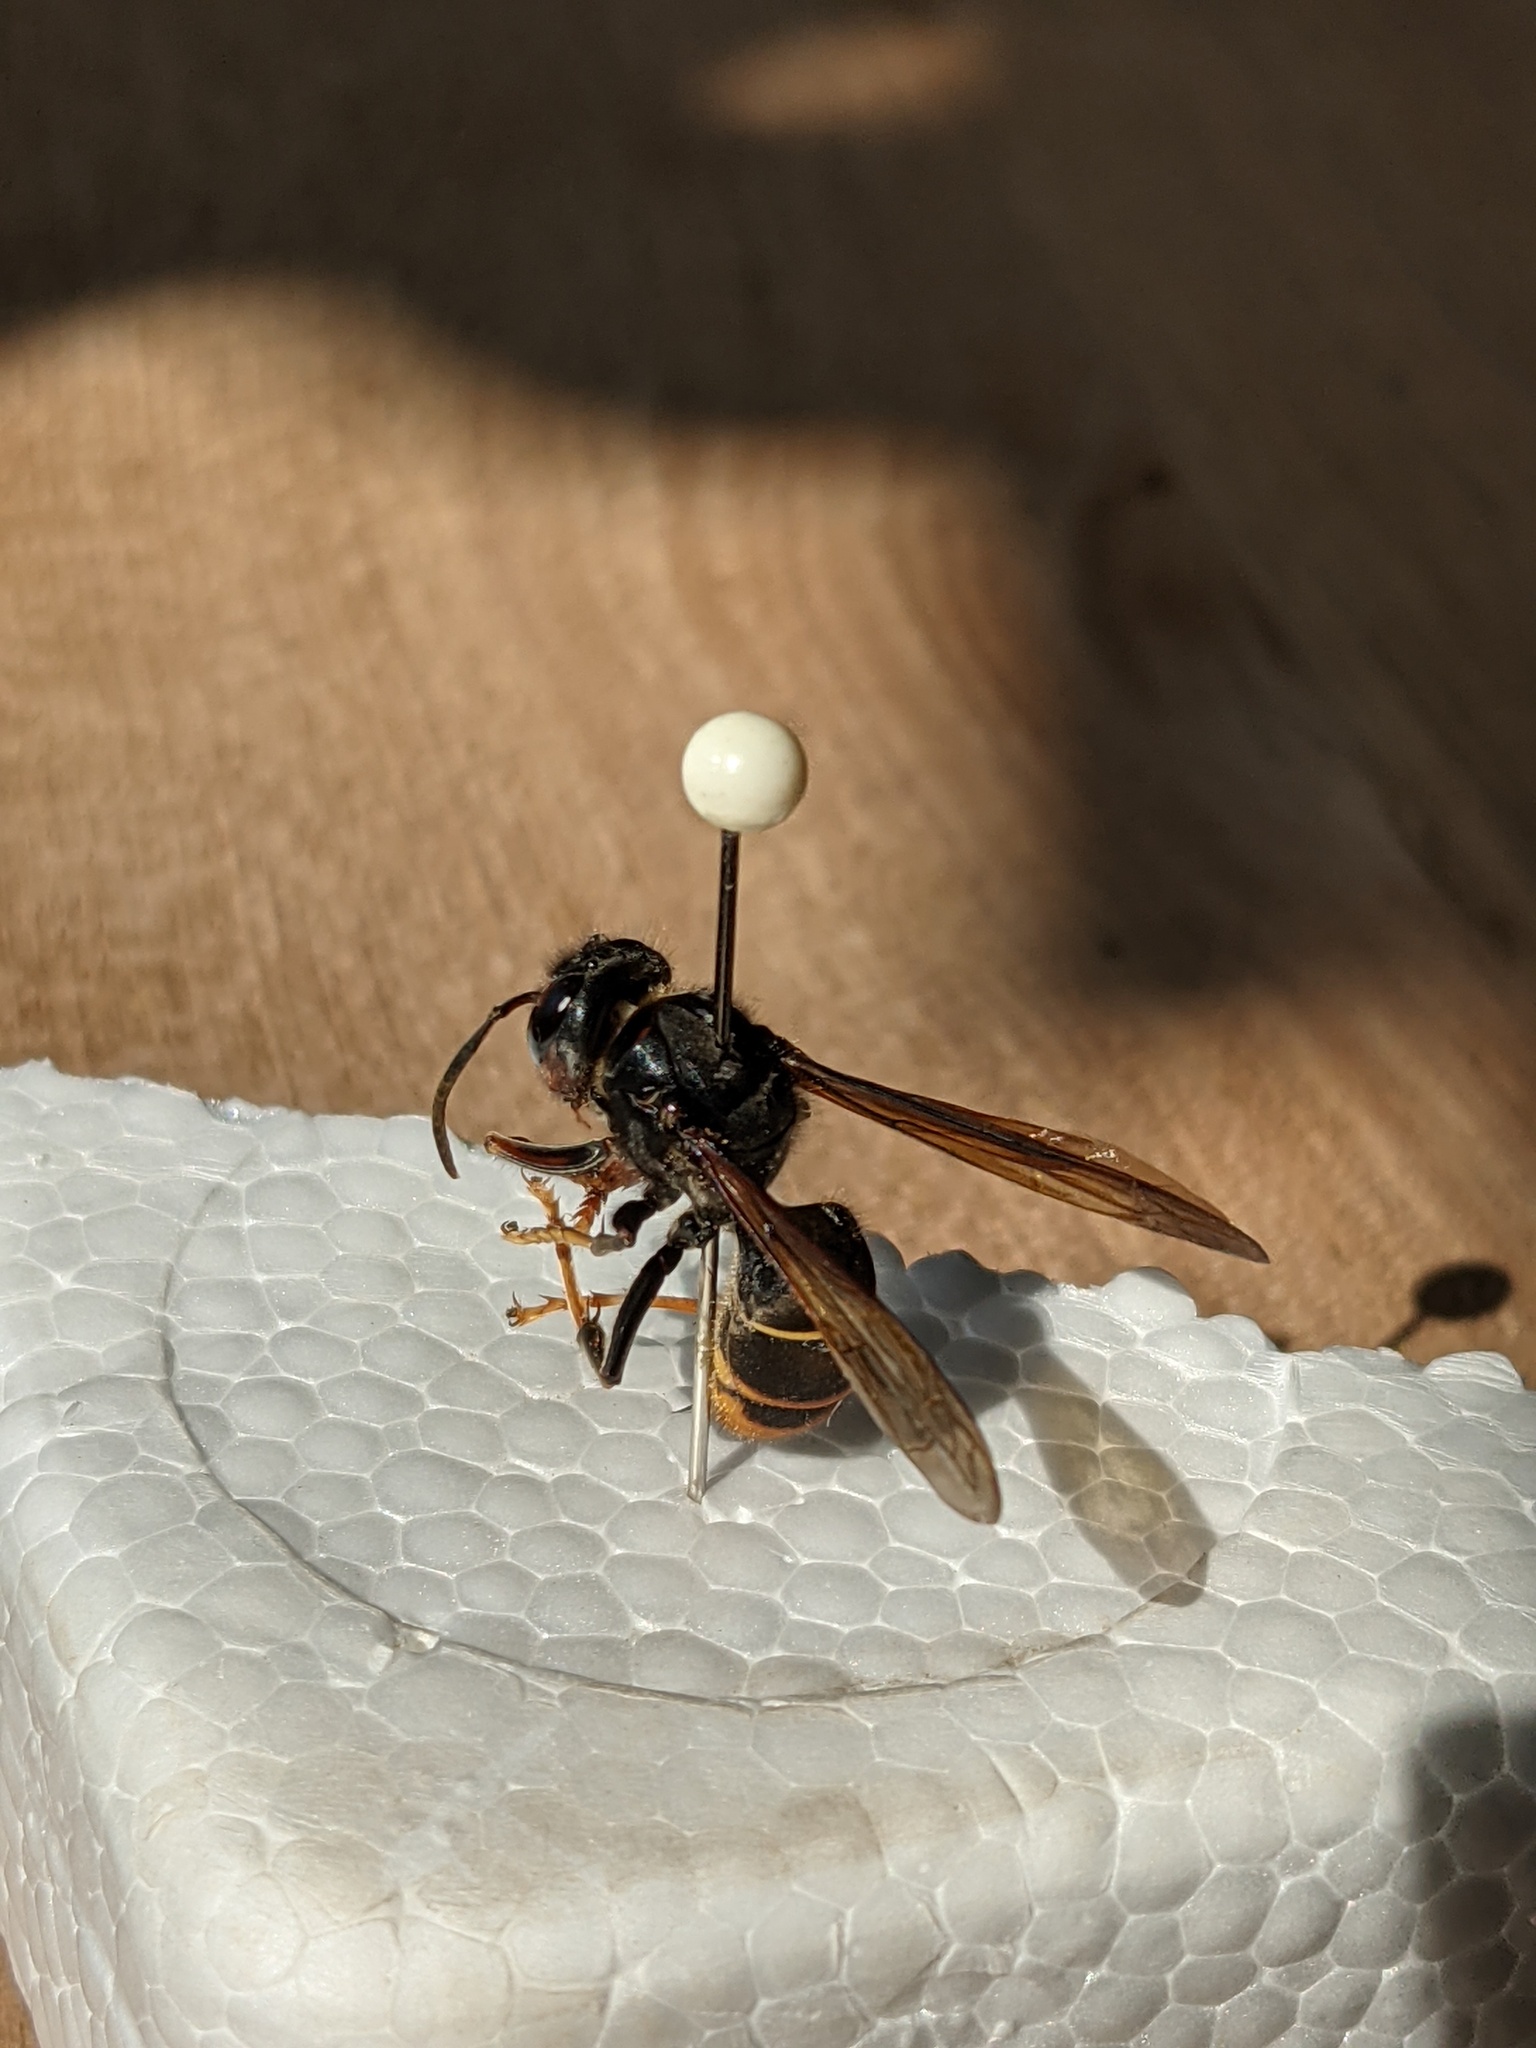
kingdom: Animalia
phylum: Arthropoda
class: Insecta
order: Hymenoptera
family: Vespidae
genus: Vespa
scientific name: Vespa velutina
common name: Asian hornet
